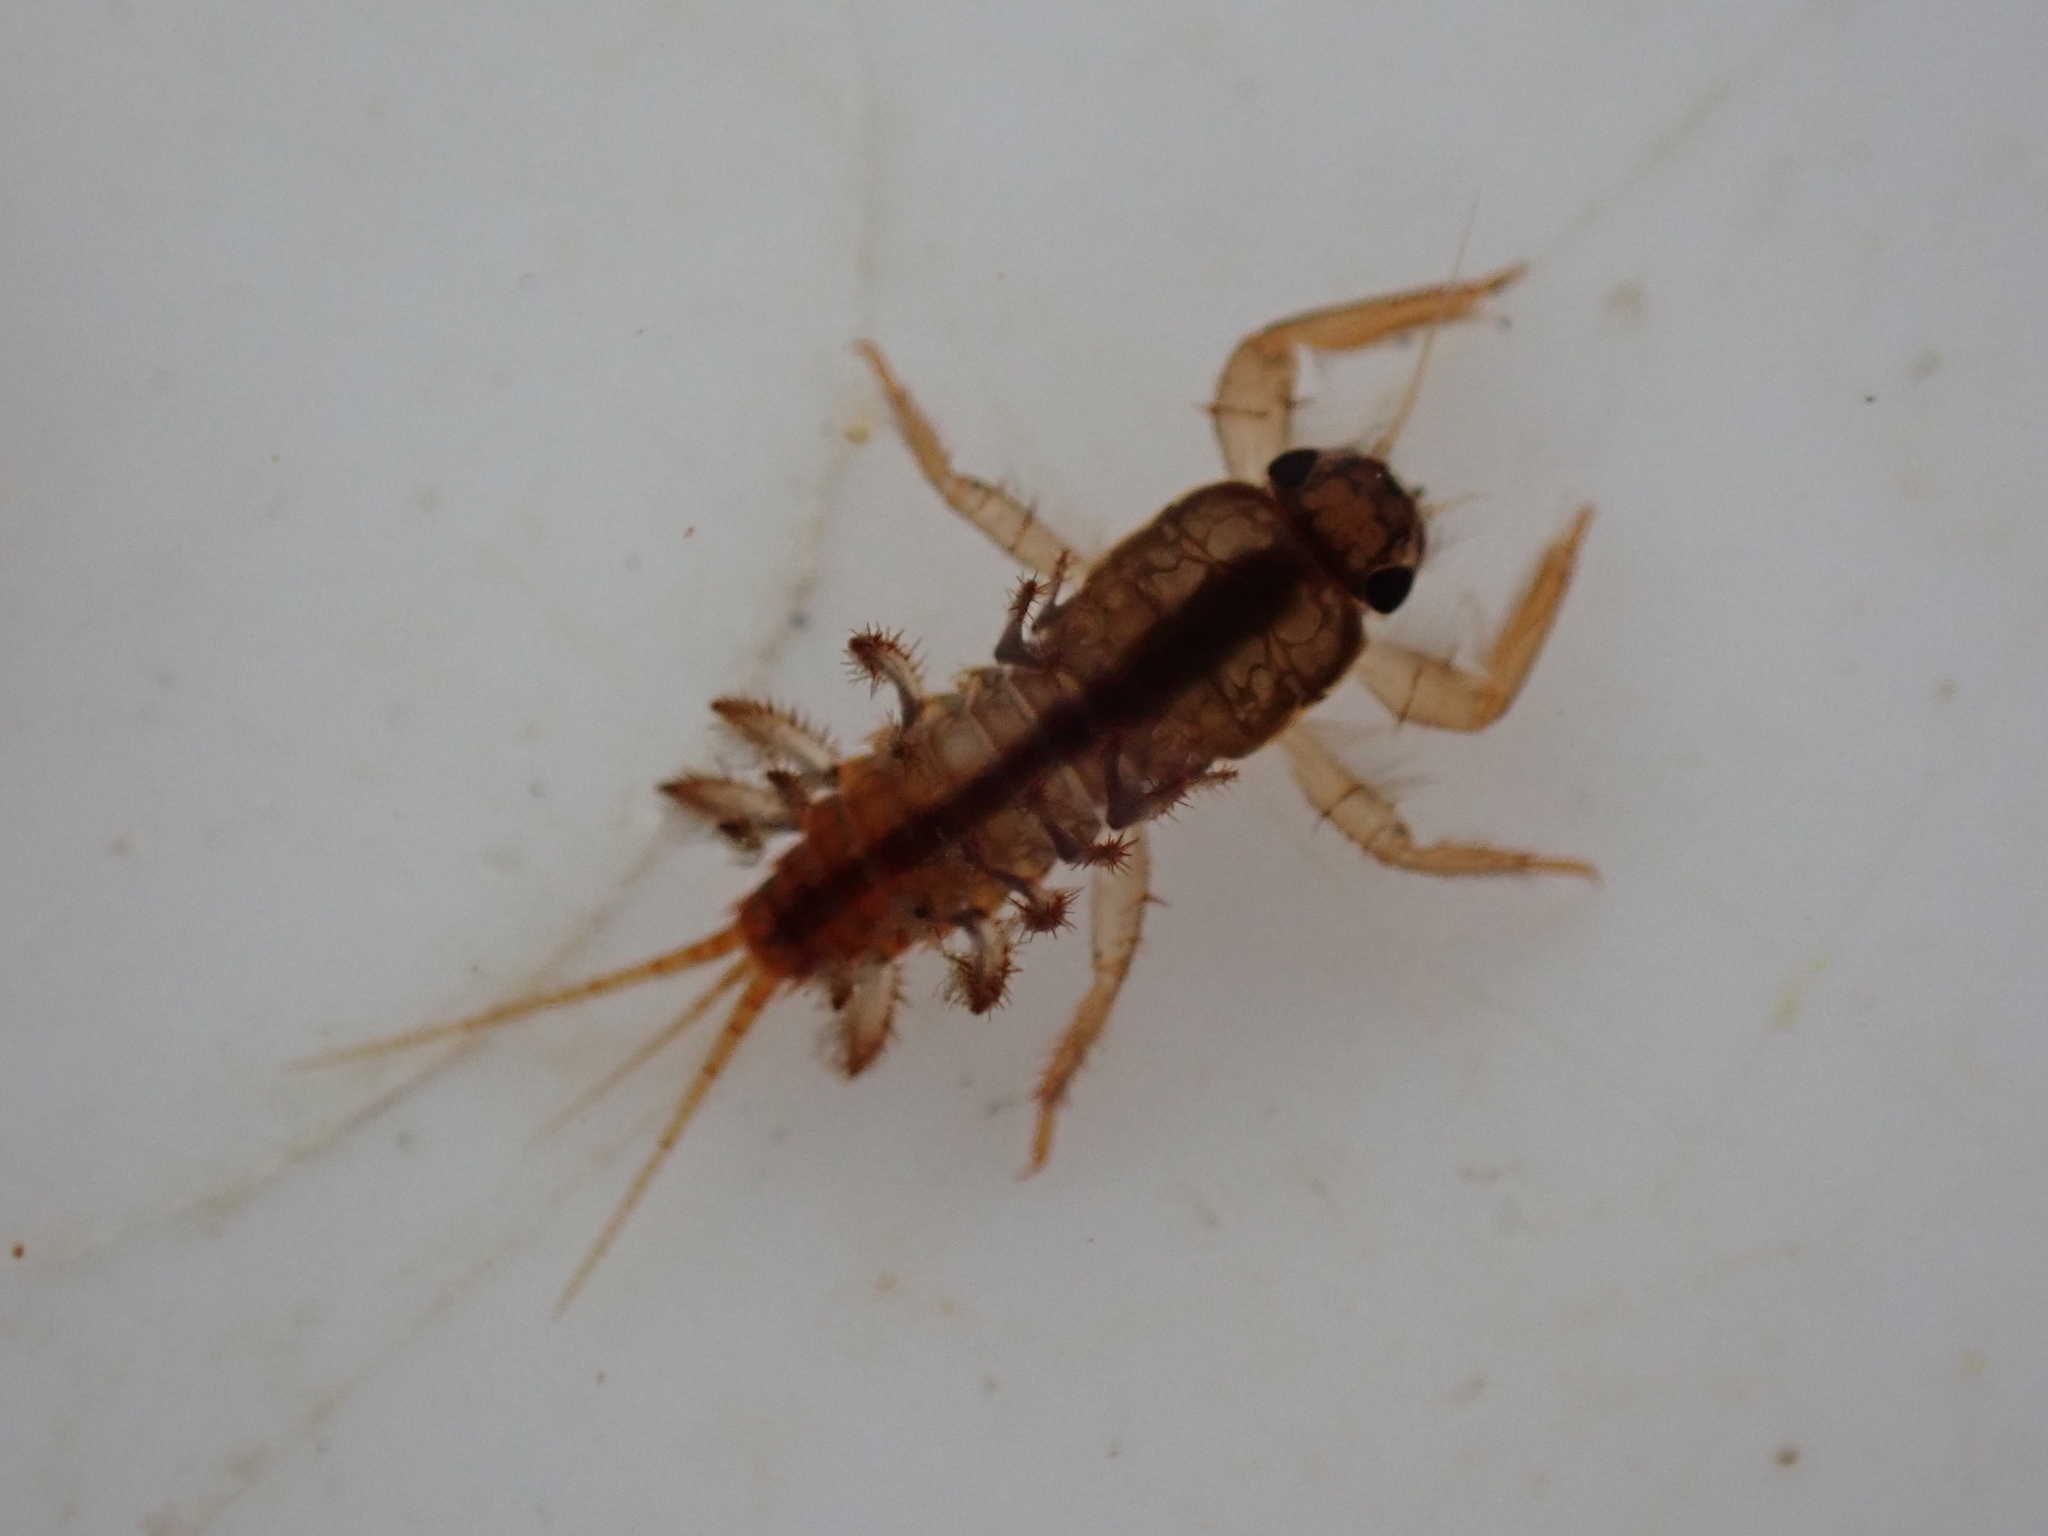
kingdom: Animalia
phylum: Arthropoda
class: Insecta
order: Ephemeroptera
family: Coloburiscidae
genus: Coloburiscus
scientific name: Coloburiscus humeralis
